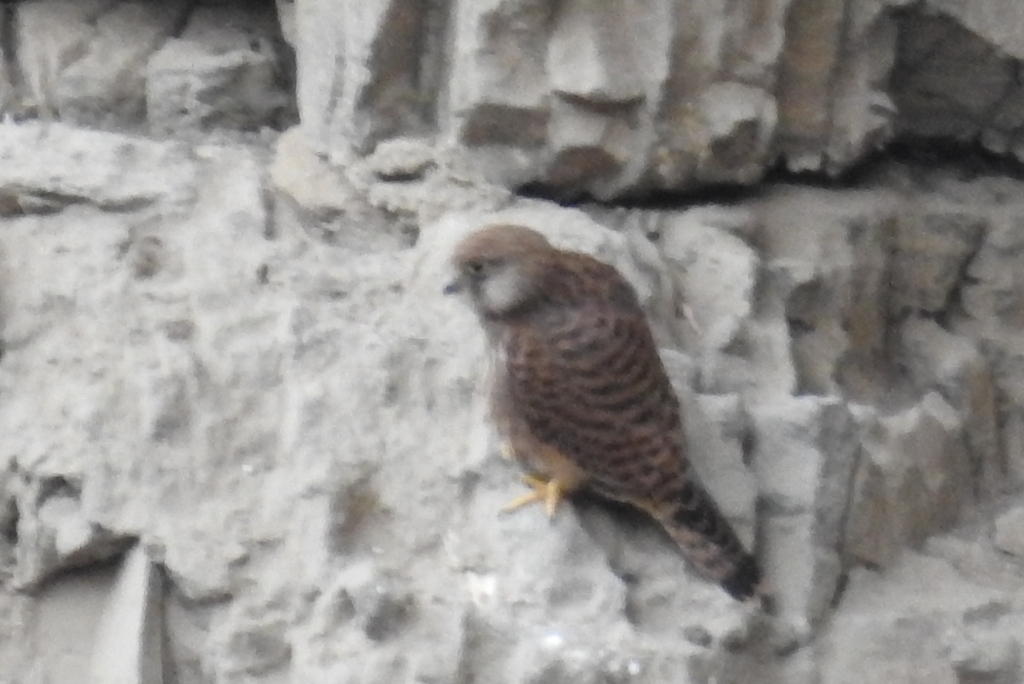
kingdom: Animalia
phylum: Chordata
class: Aves
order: Falconiformes
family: Falconidae
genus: Falco
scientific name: Falco tinnunculus
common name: Common kestrel
